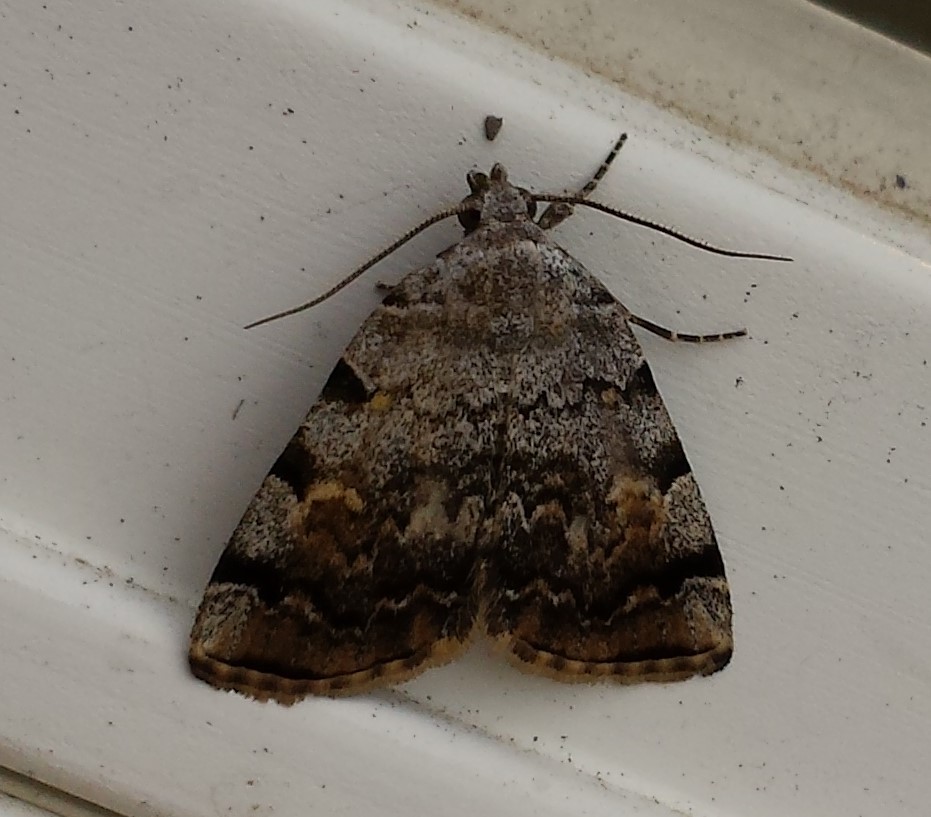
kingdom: Animalia
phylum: Arthropoda
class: Insecta
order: Lepidoptera
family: Erebidae
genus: Idia
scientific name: Idia americalis
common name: American idia moth
